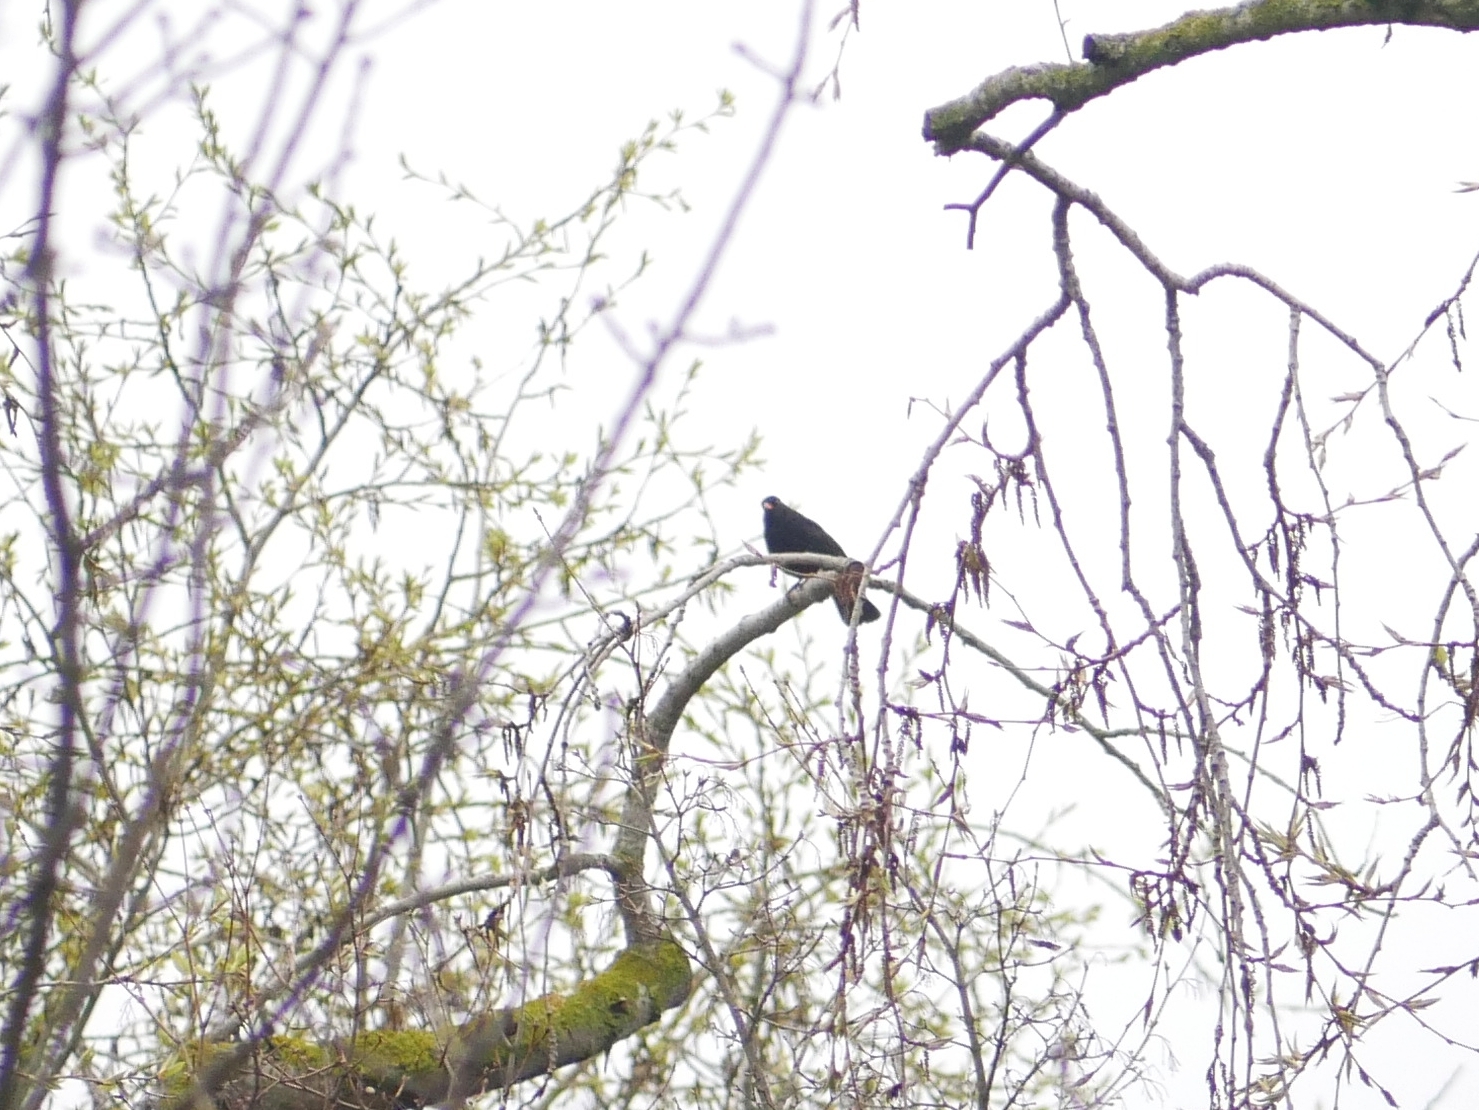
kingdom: Animalia
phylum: Chordata
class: Aves
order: Passeriformes
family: Turdidae
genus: Turdus
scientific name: Turdus merula
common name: Common blackbird
